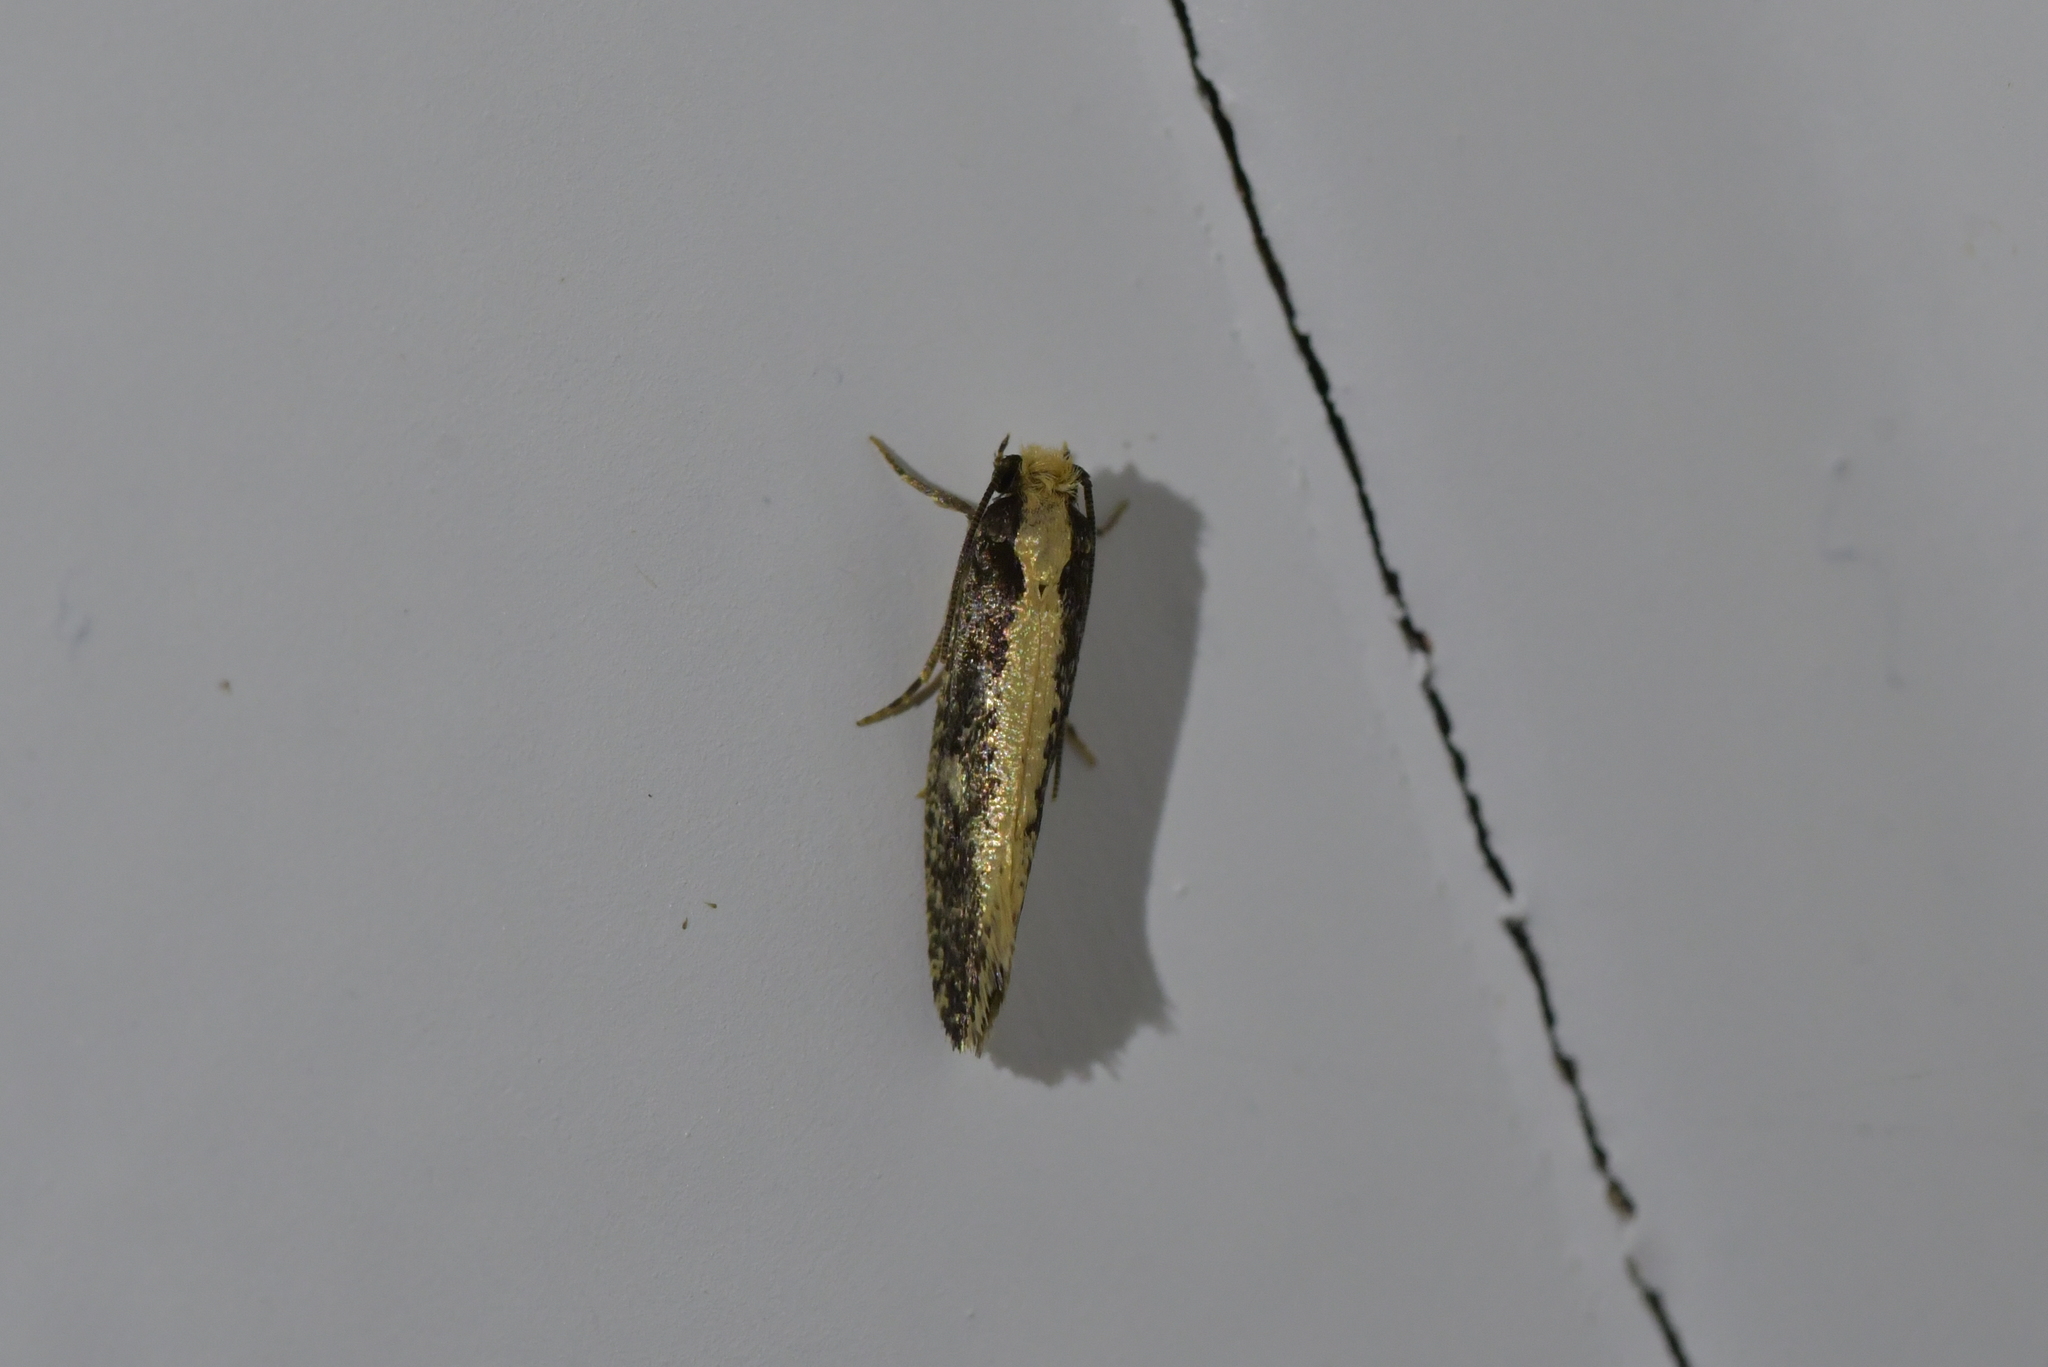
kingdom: Animalia
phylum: Arthropoda
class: Insecta
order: Lepidoptera
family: Tineidae
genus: Monopis
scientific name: Monopis crocicapitella
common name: Moth
